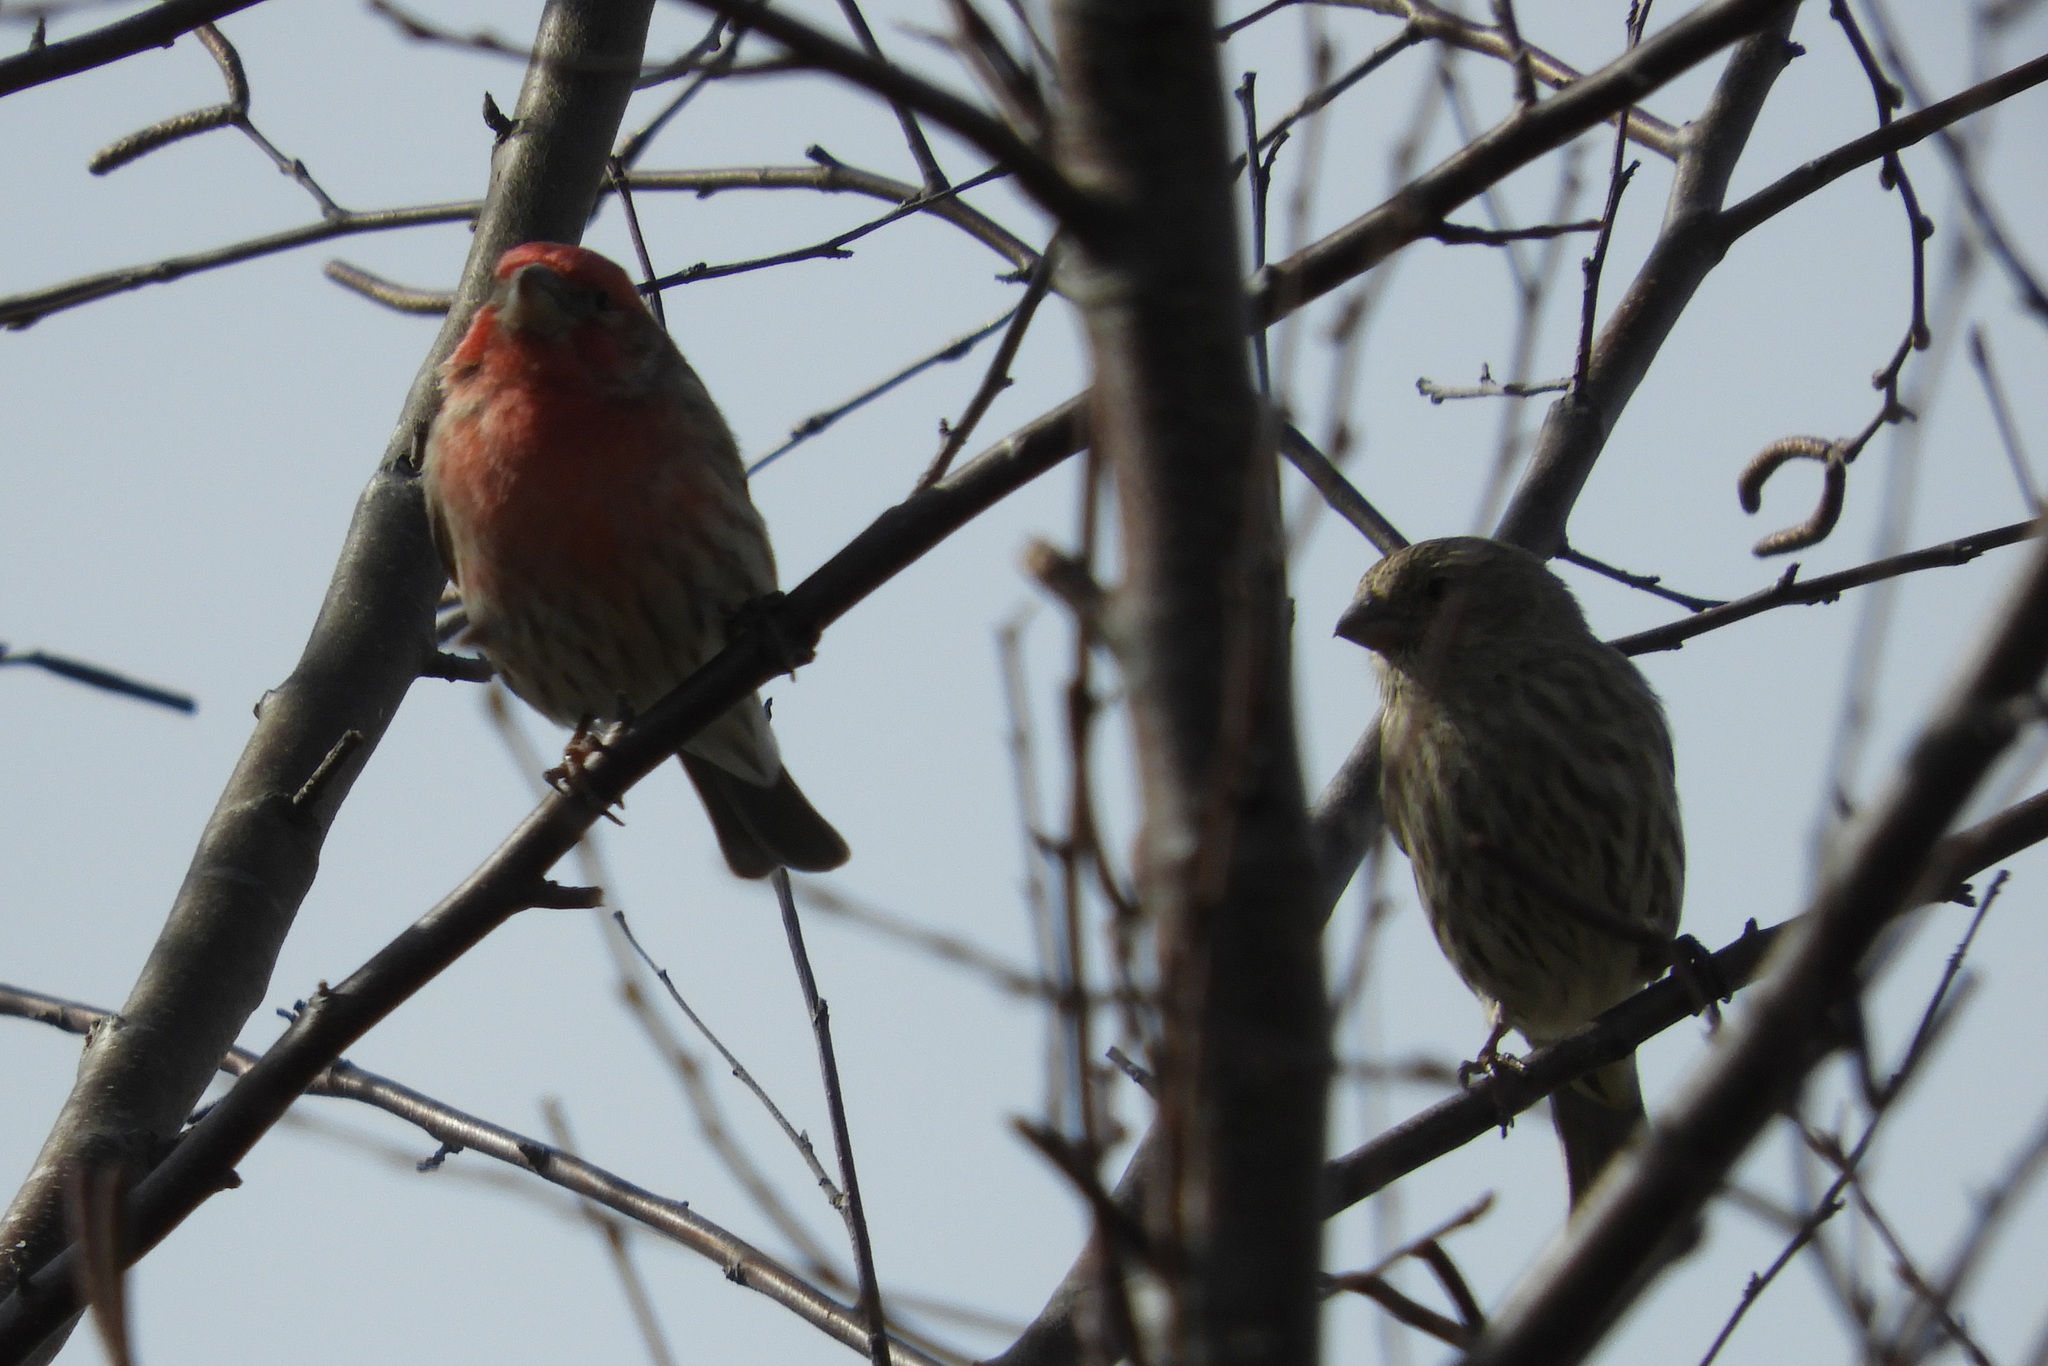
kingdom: Animalia
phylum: Chordata
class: Aves
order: Passeriformes
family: Fringillidae
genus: Haemorhous
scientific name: Haemorhous mexicanus
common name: House finch
